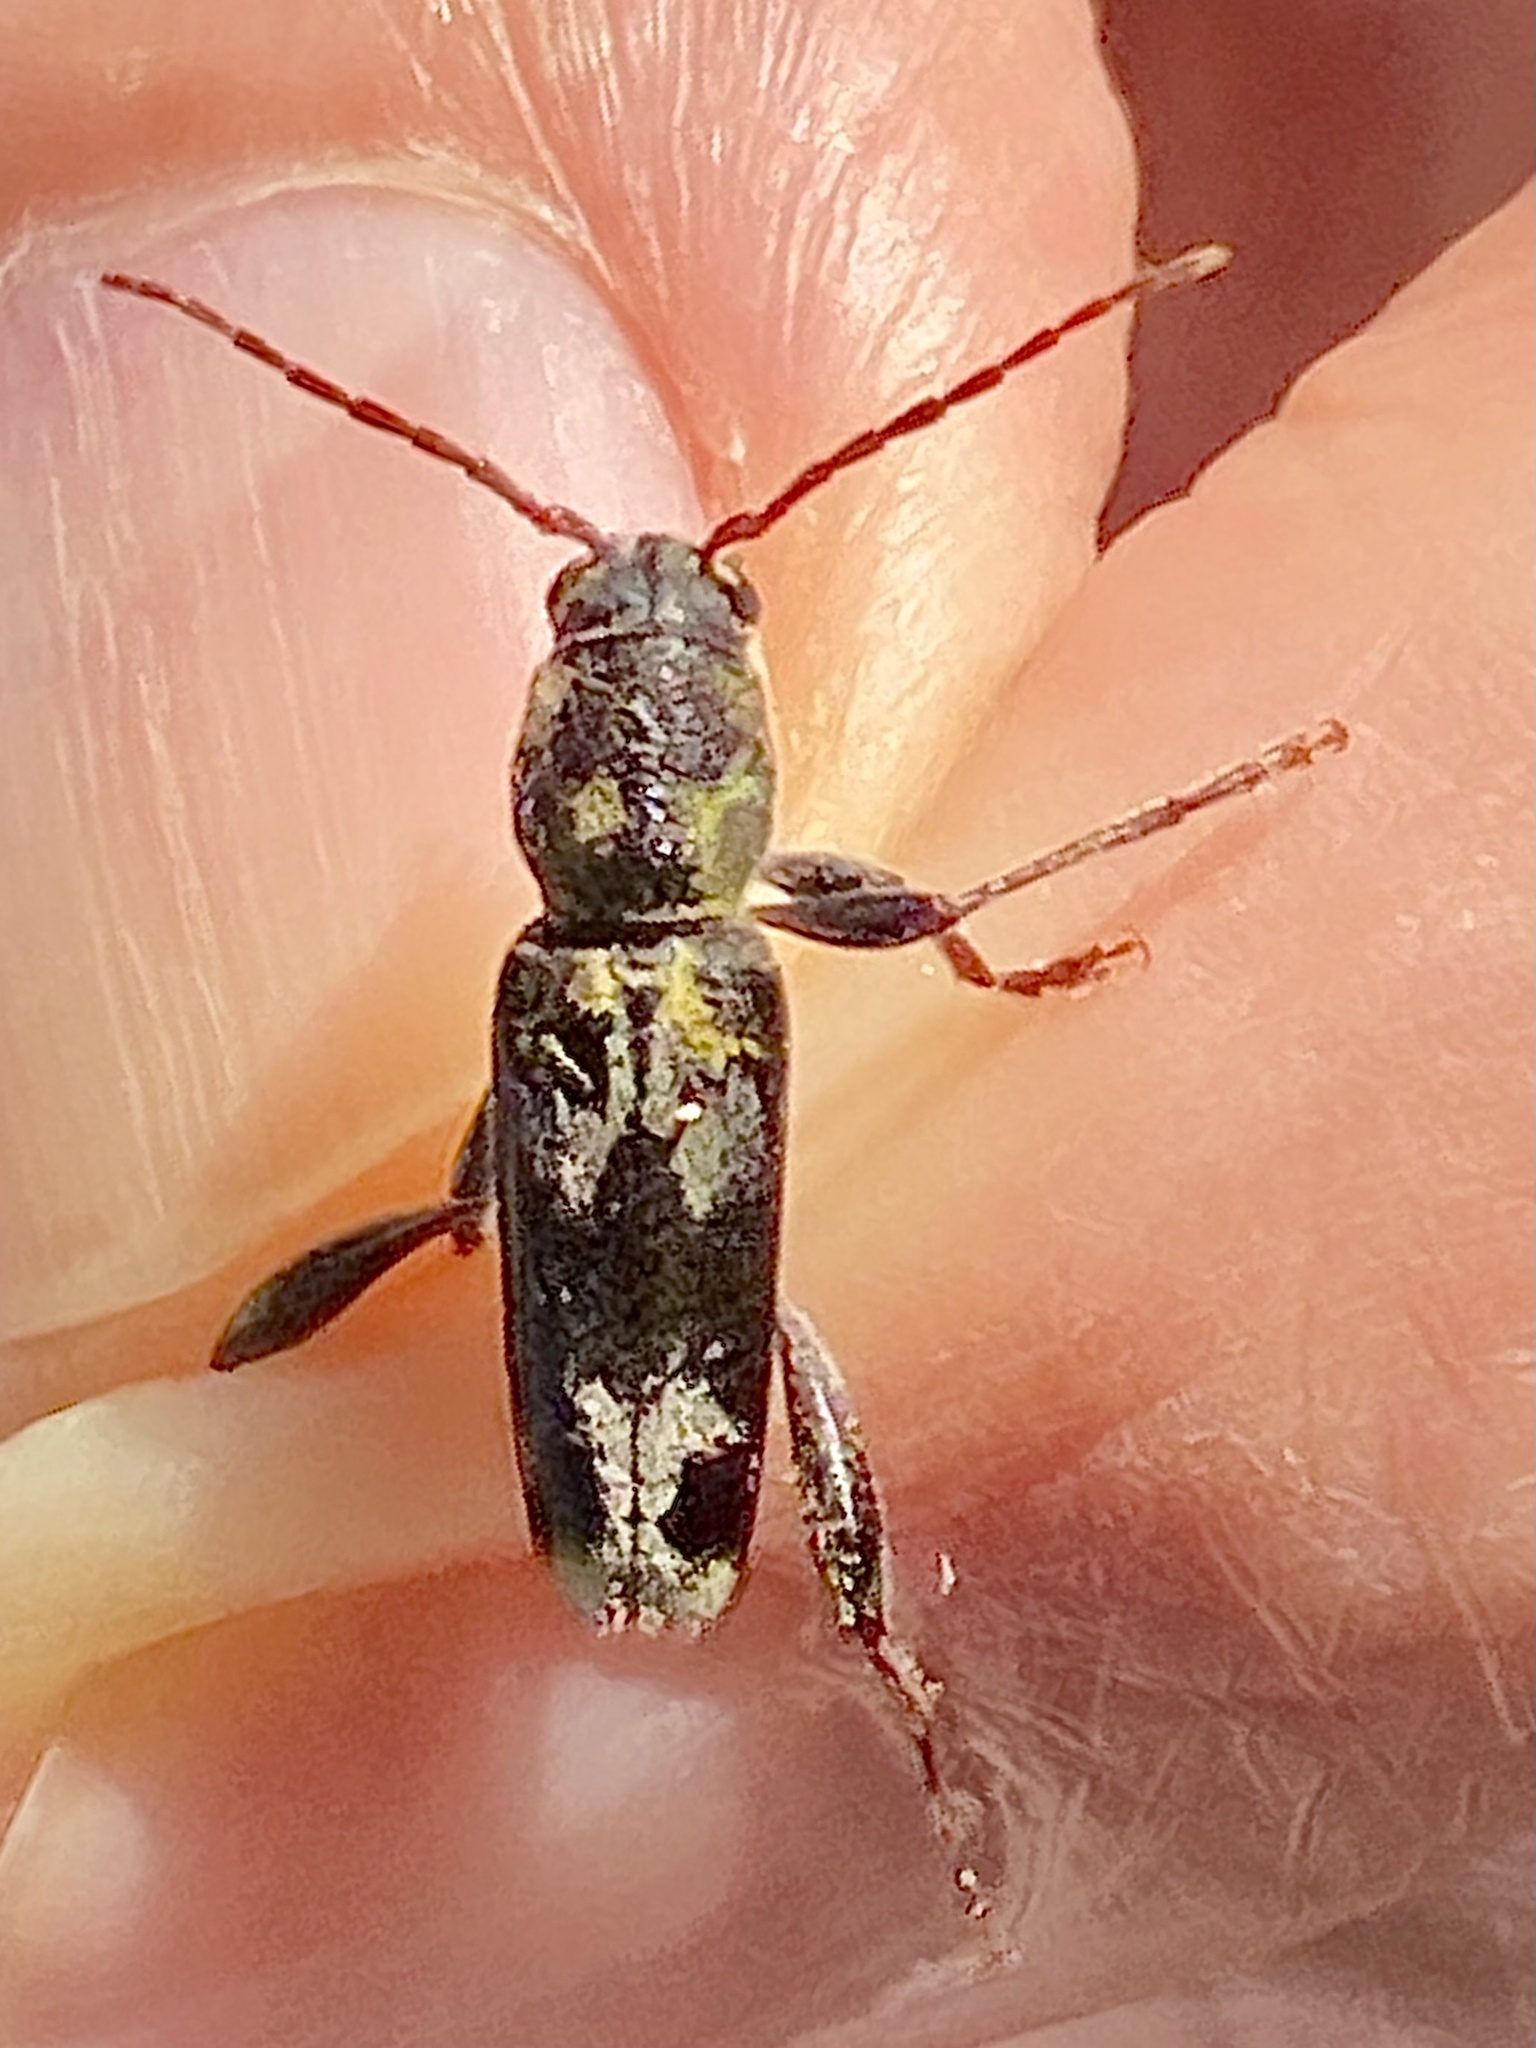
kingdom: Animalia
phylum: Arthropoda
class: Insecta
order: Coleoptera
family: Cerambycidae
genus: Xylotrechus
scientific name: Xylotrechus colonus
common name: Long-horned beetle
